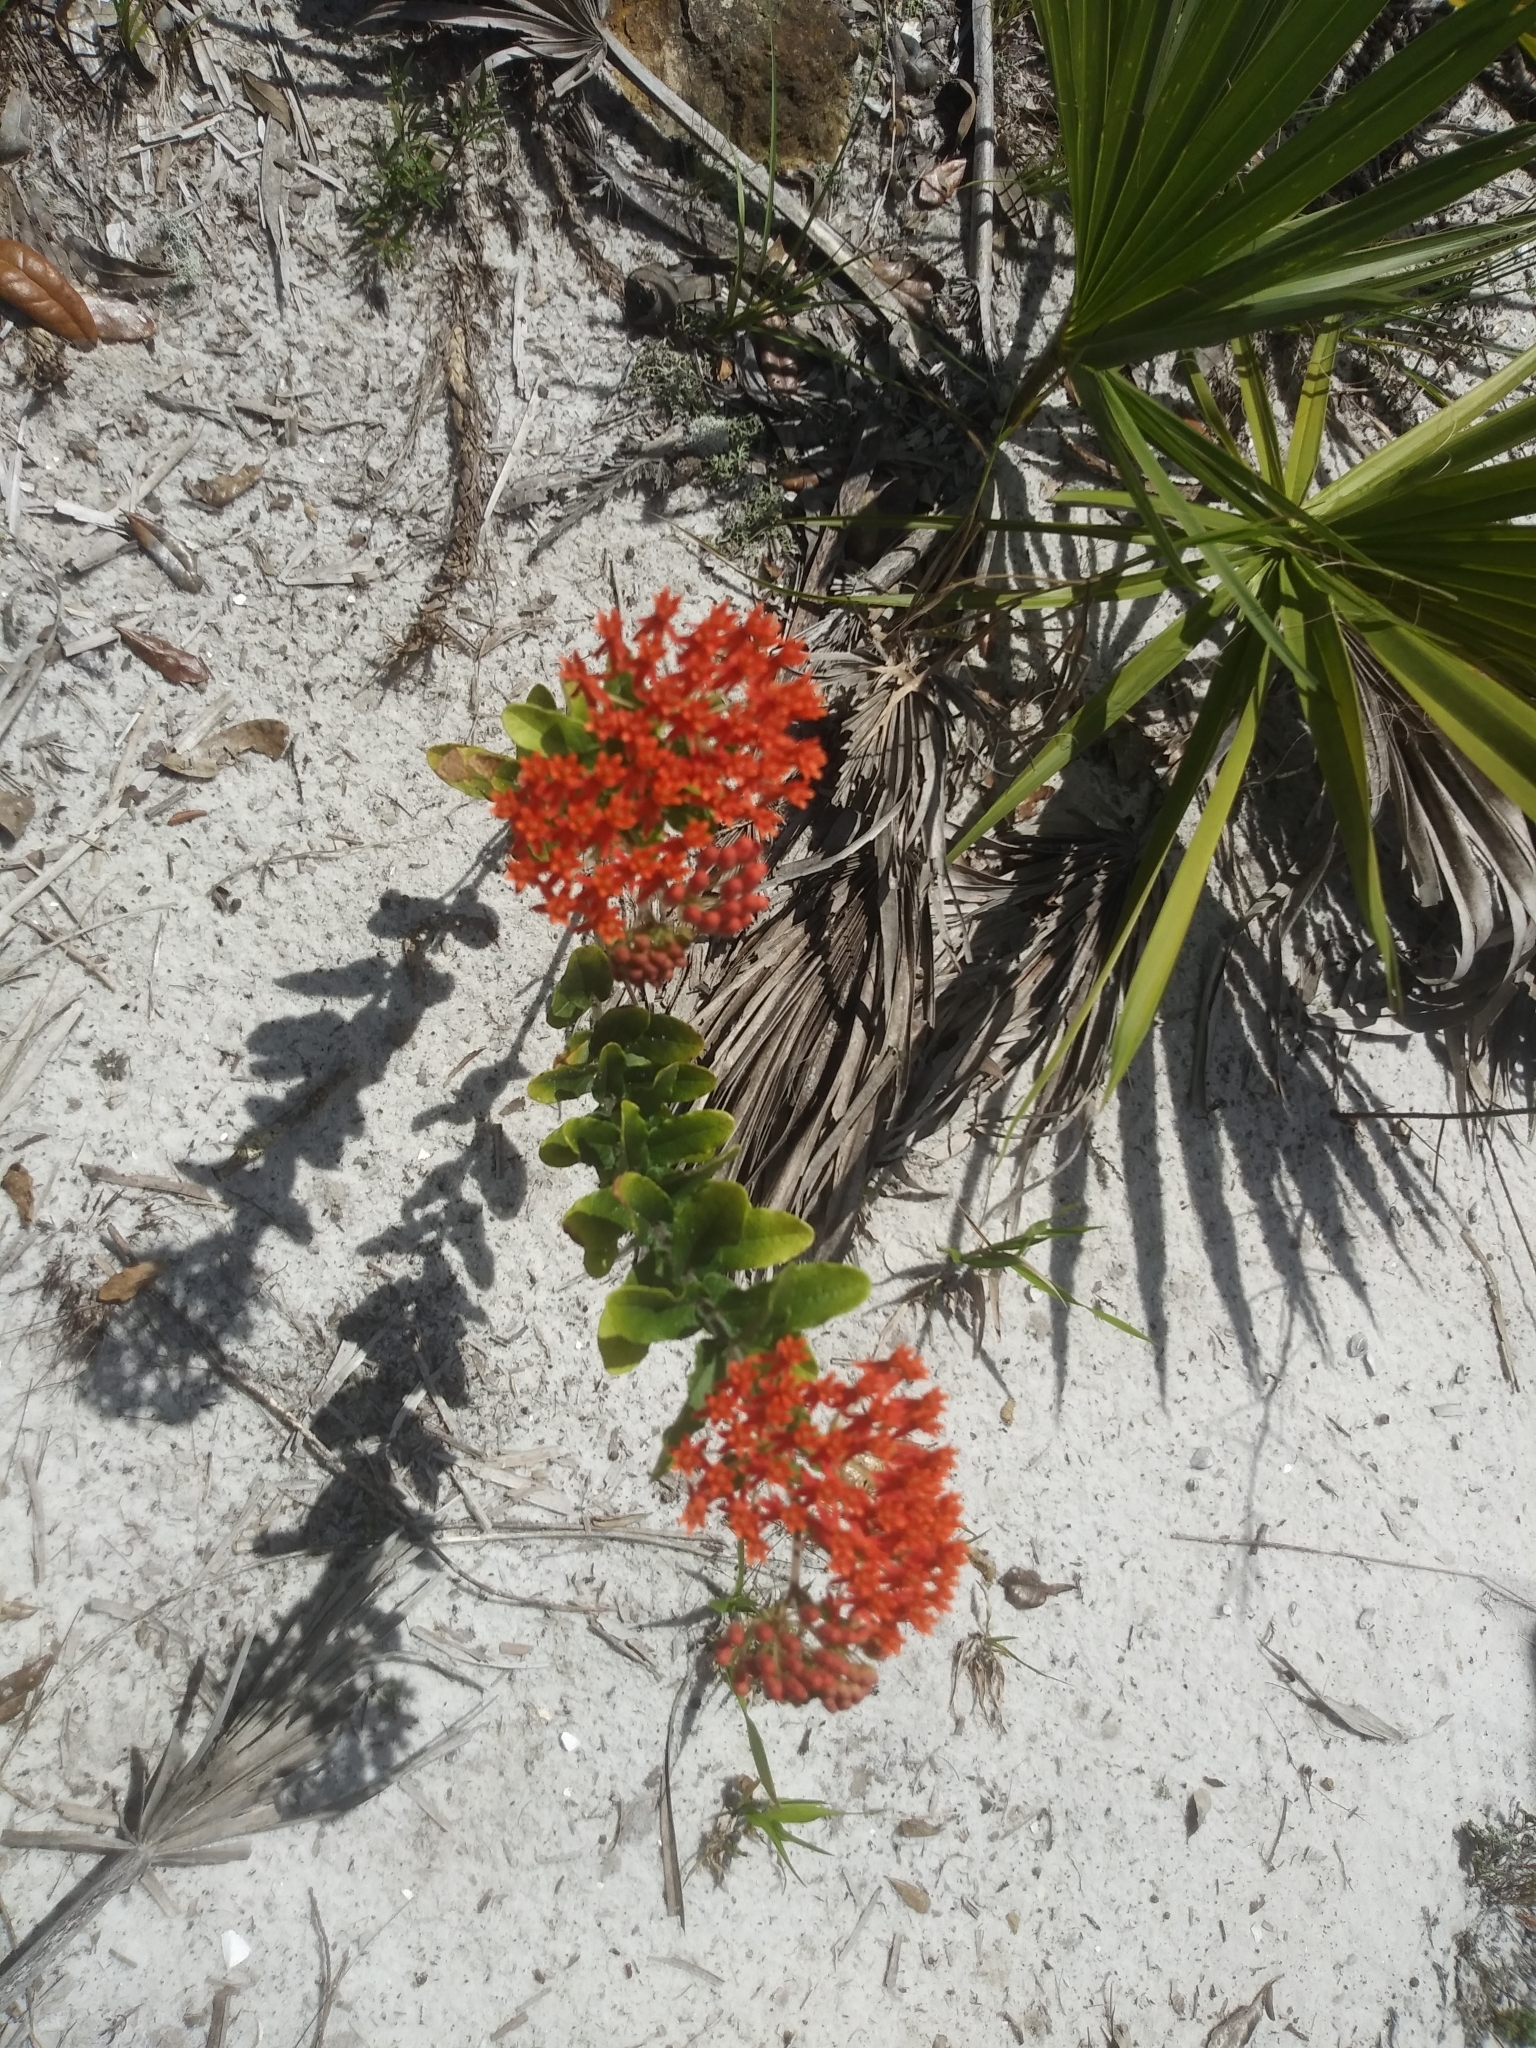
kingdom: Plantae
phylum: Tracheophyta
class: Magnoliopsida
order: Gentianales
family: Apocynaceae
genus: Asclepias
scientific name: Asclepias tuberosa
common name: Butterfly milkweed
